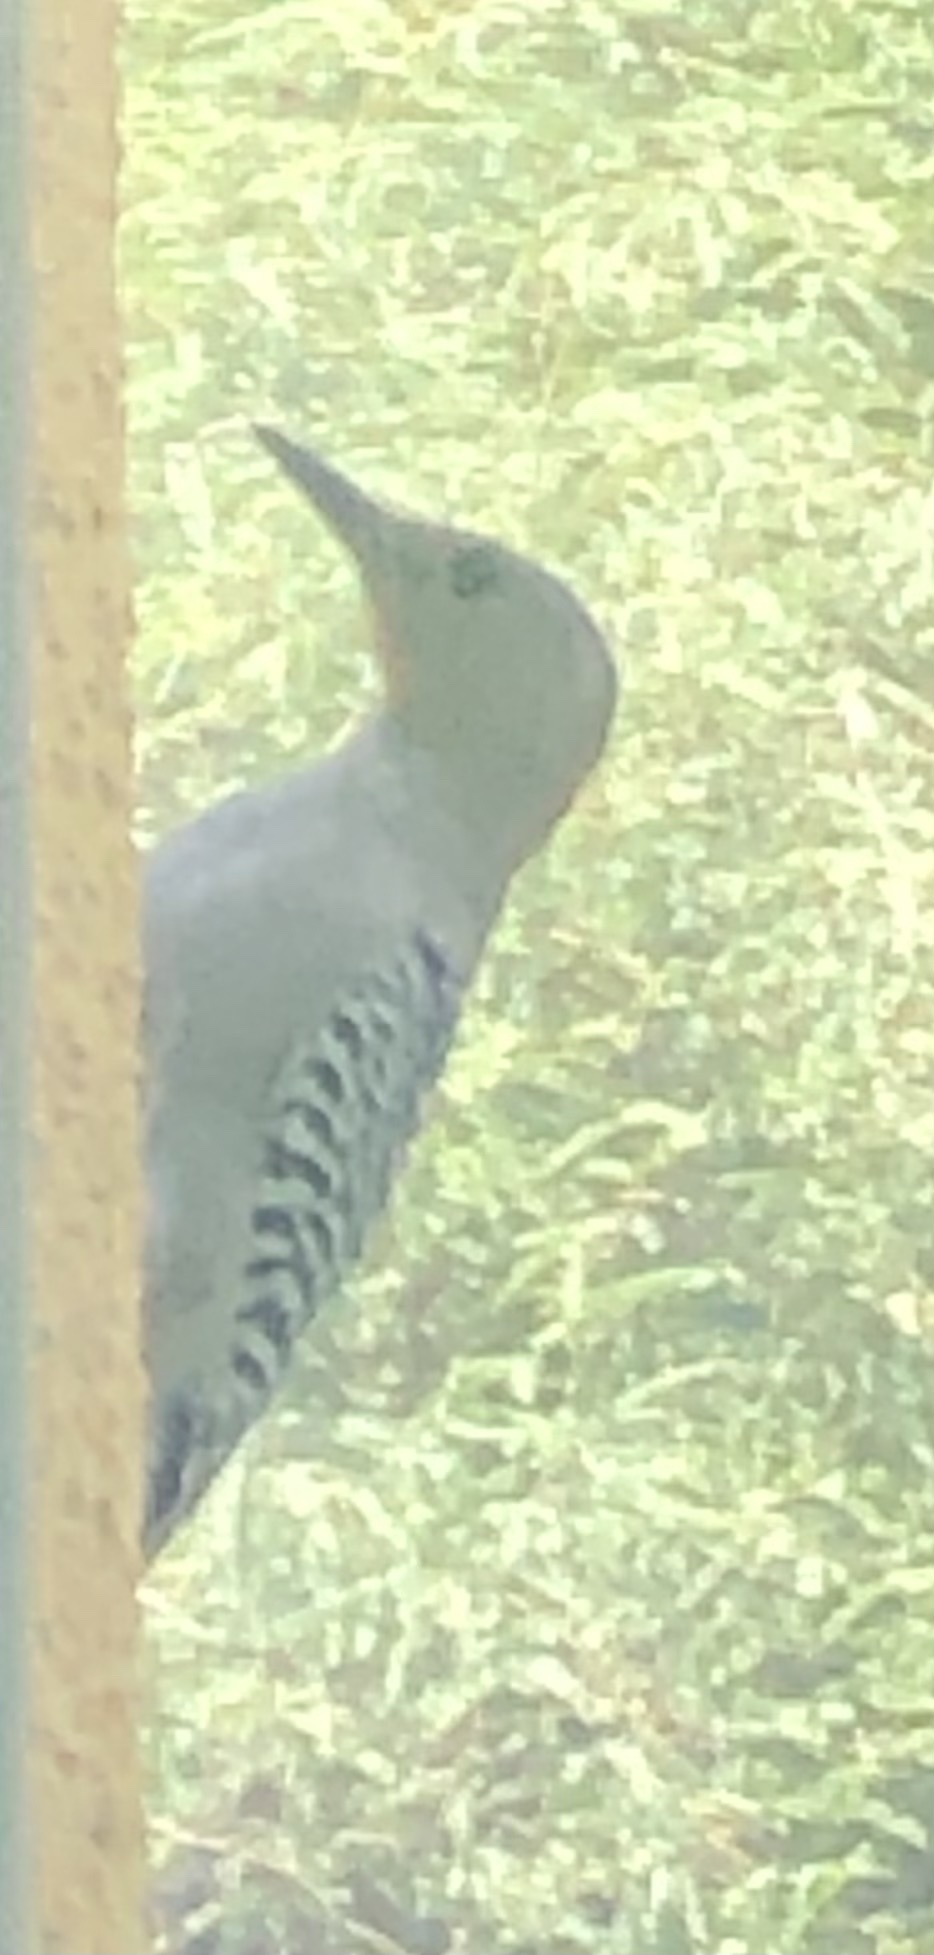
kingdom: Animalia
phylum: Chordata
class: Aves
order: Piciformes
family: Picidae
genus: Melanerpes
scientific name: Melanerpes uropygialis
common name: Gila woodpecker
